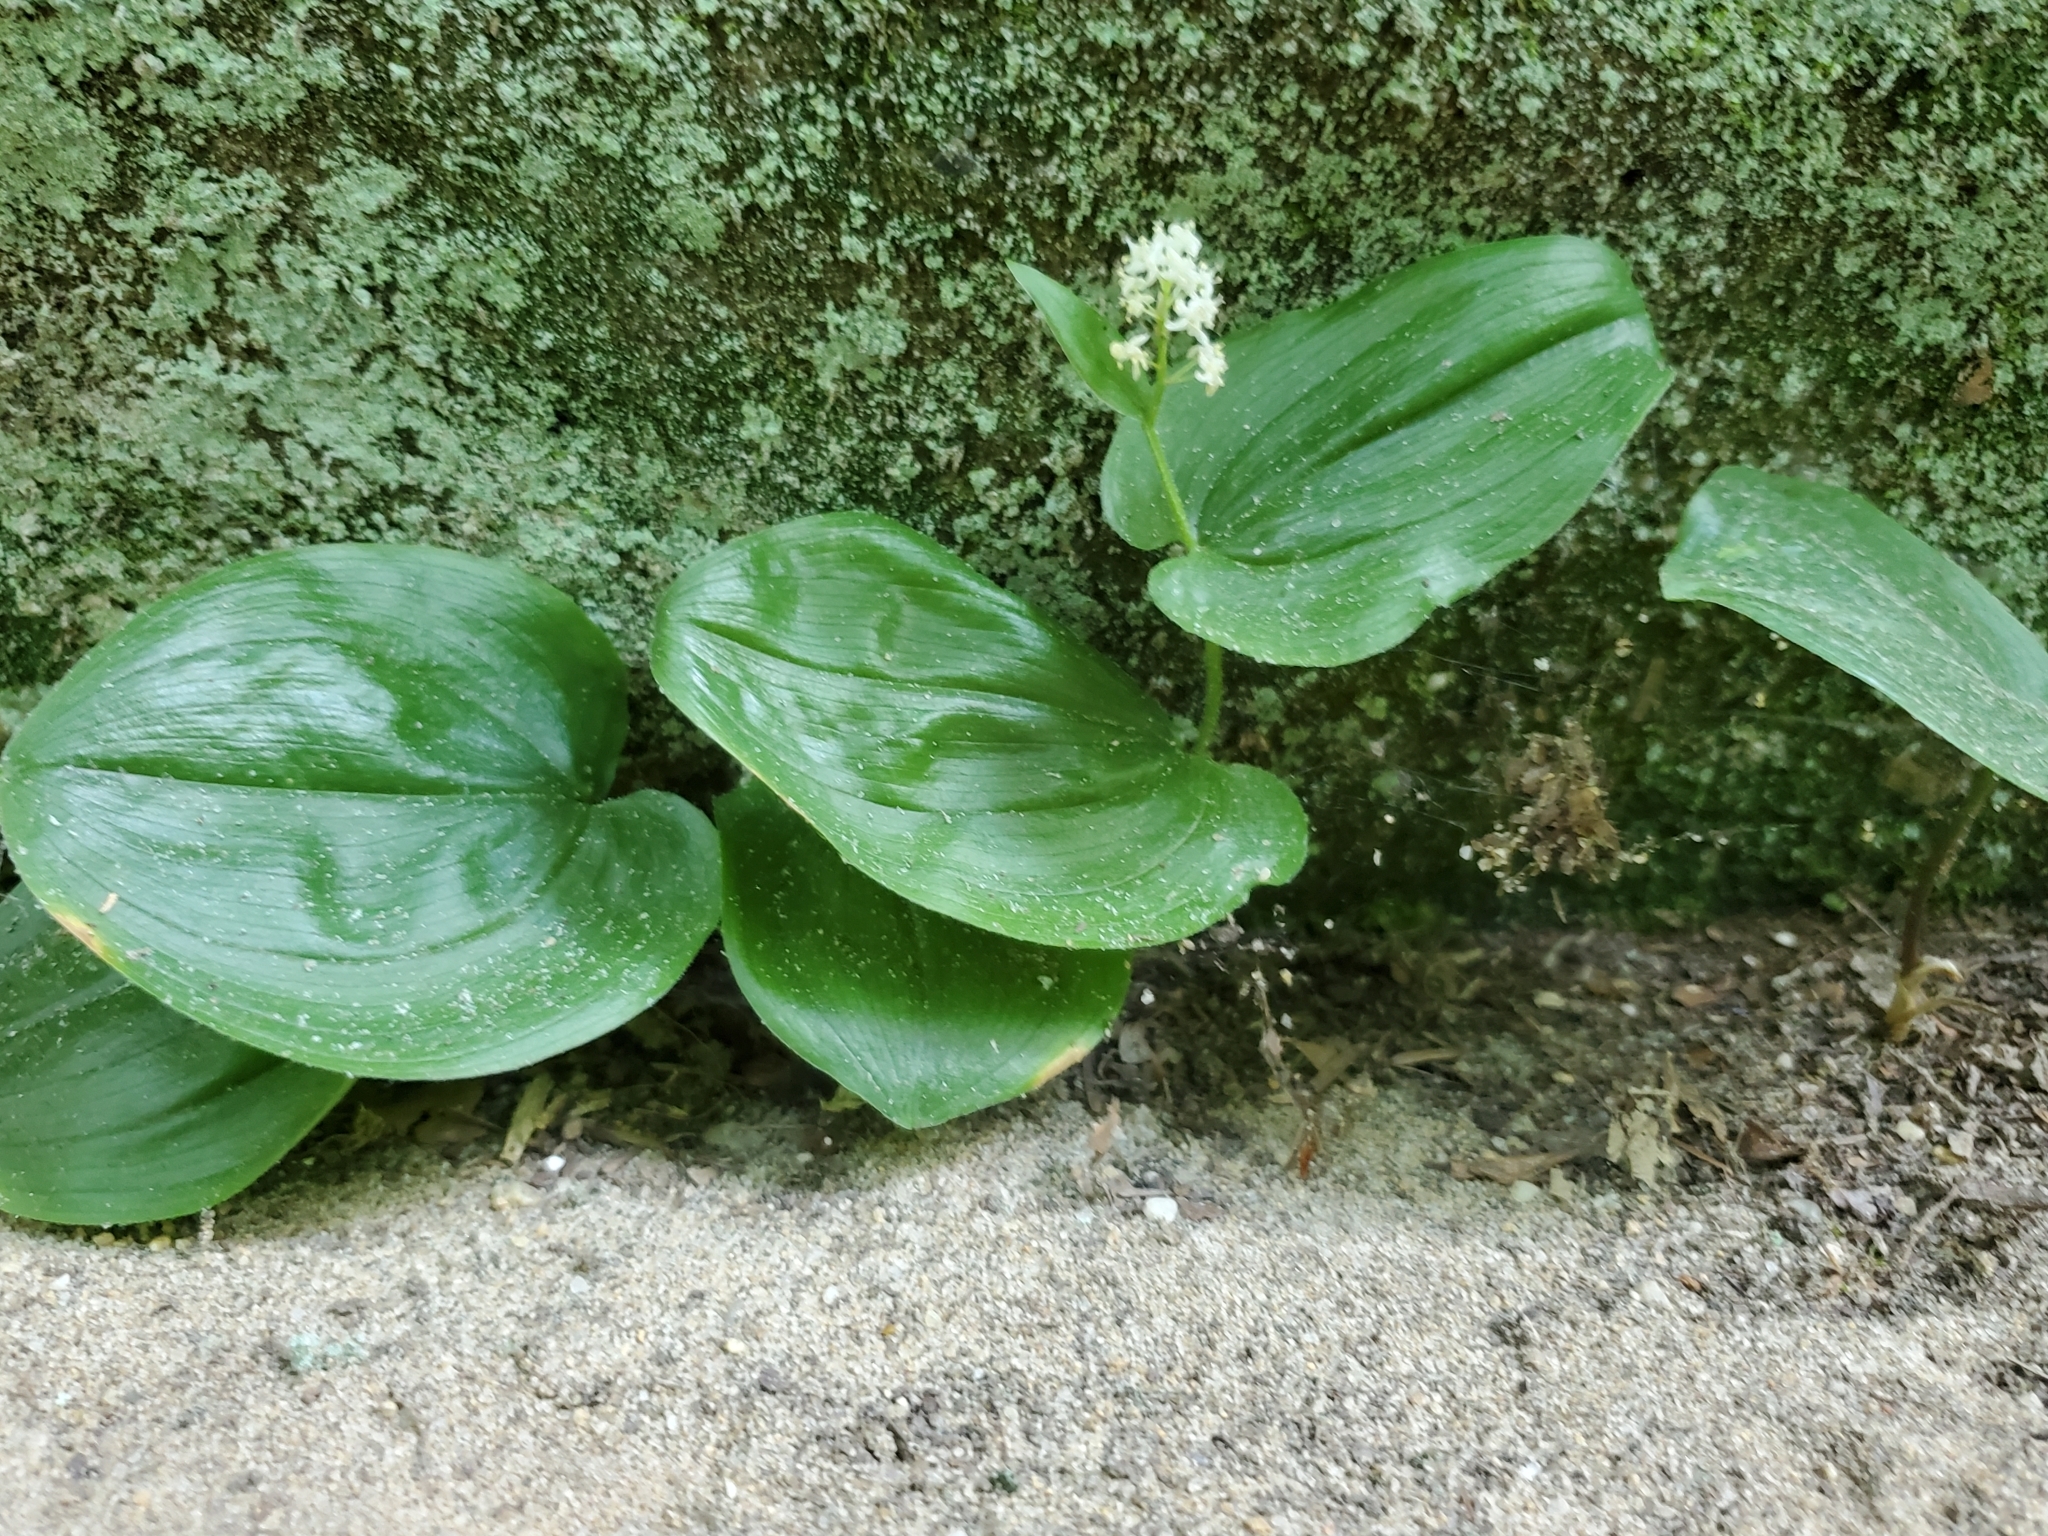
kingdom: Plantae
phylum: Tracheophyta
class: Liliopsida
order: Asparagales
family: Asparagaceae
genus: Maianthemum
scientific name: Maianthemum canadense
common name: False lily-of-the-valley
